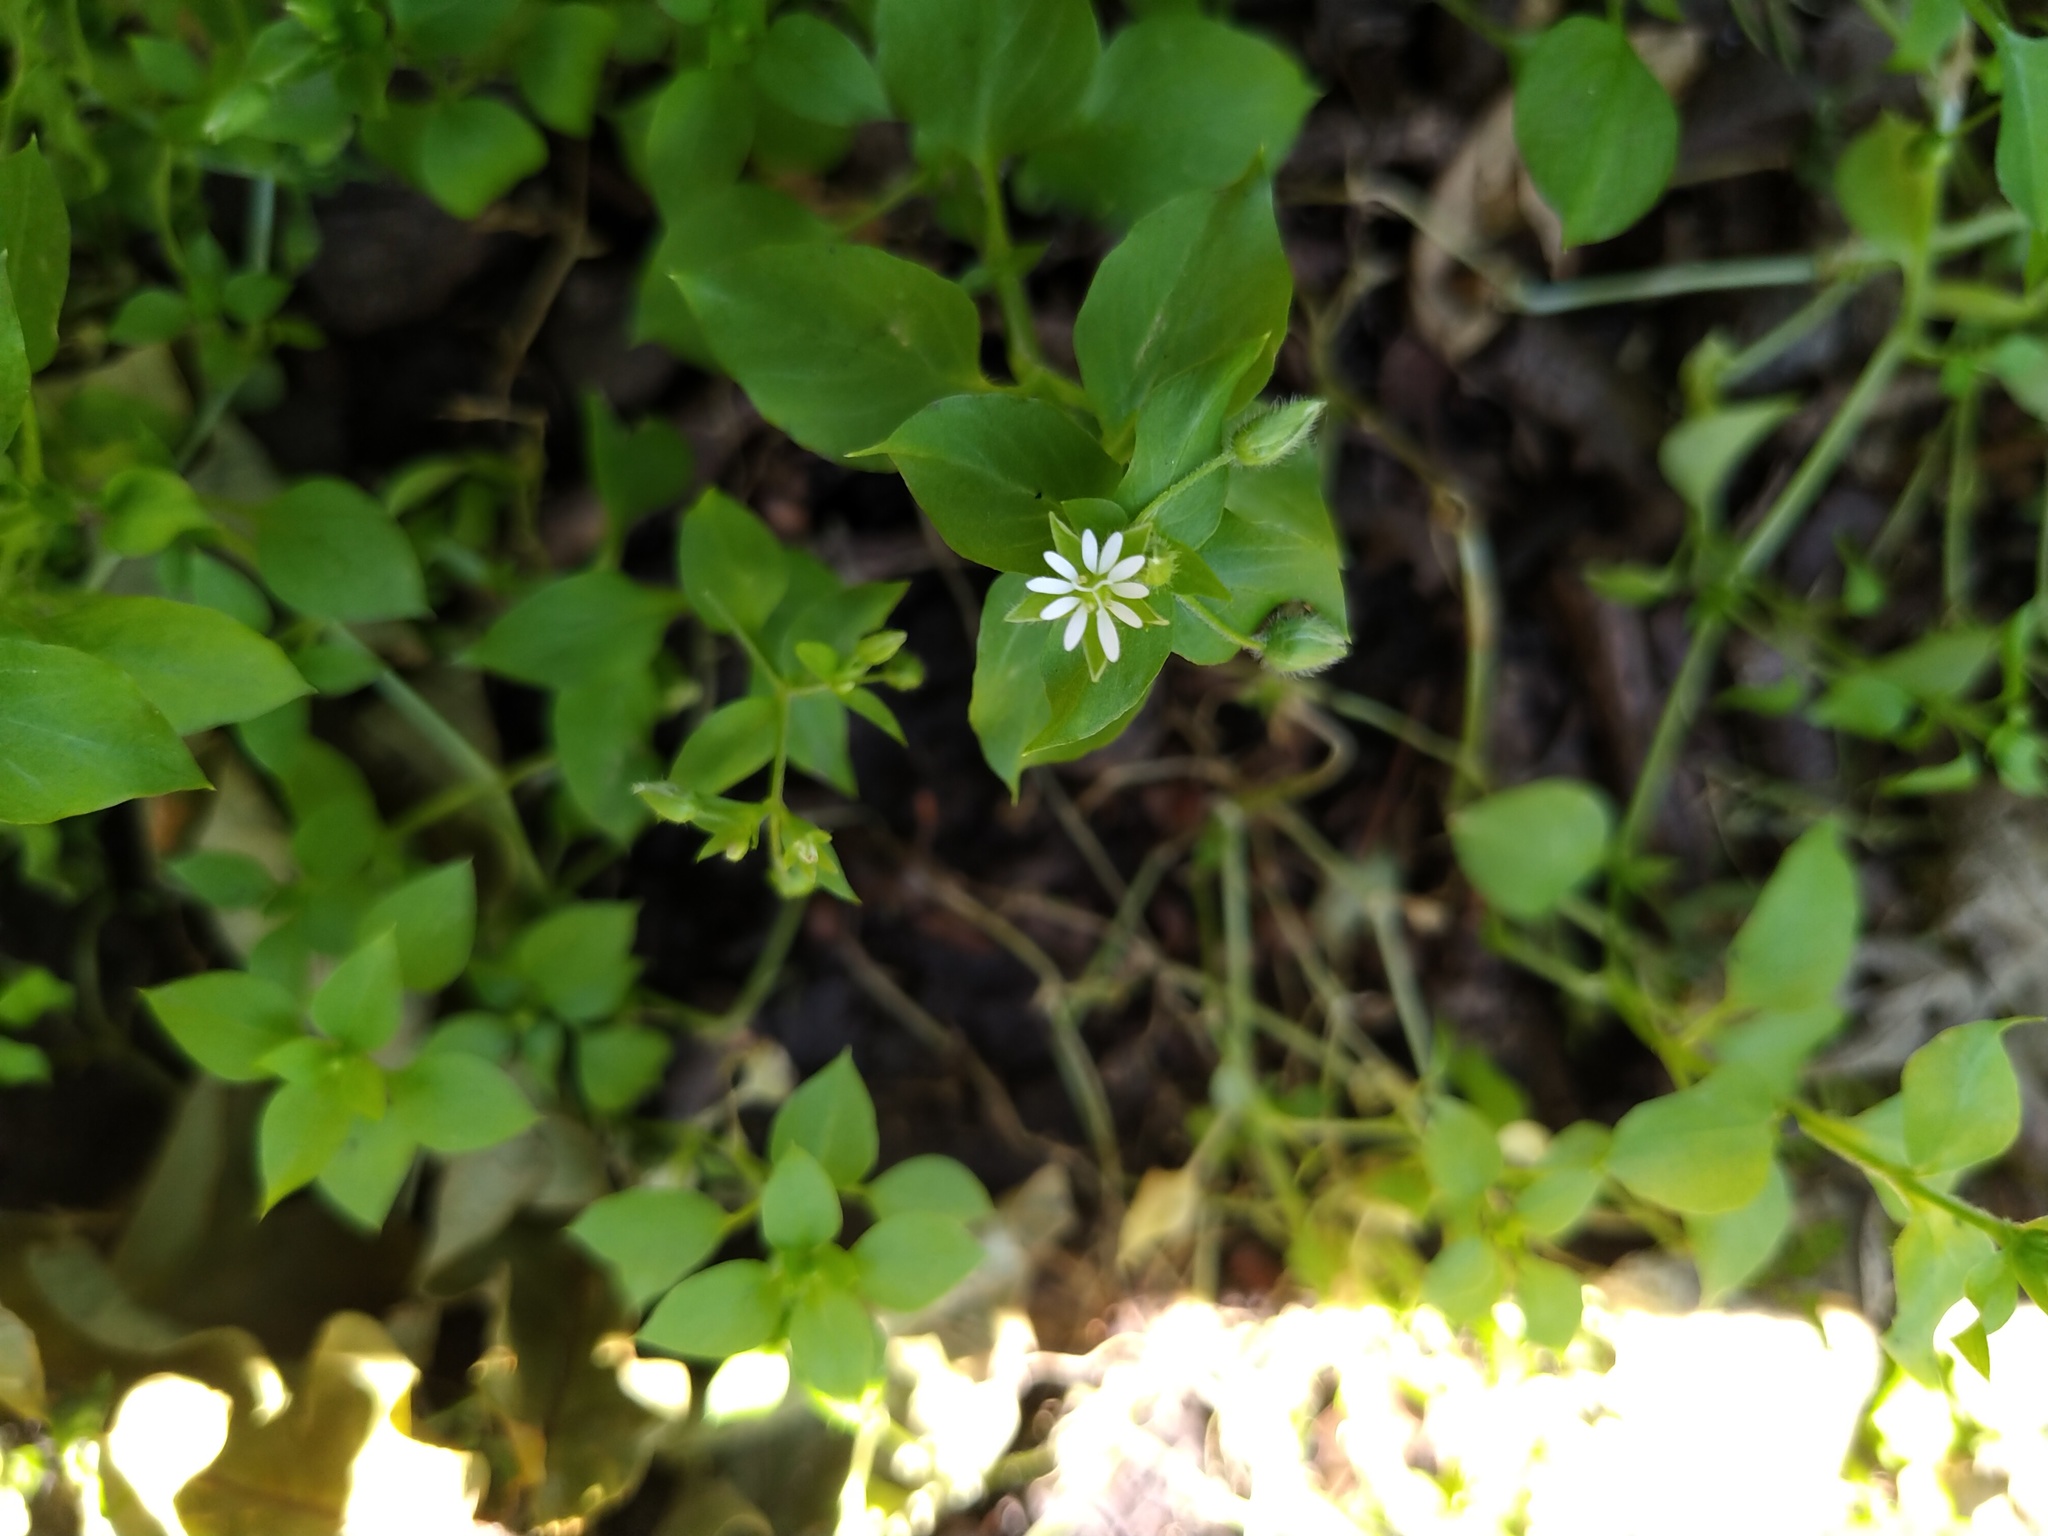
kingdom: Plantae
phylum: Tracheophyta
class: Magnoliopsida
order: Caryophyllales
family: Caryophyllaceae
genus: Stellaria
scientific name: Stellaria media
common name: Common chickweed
